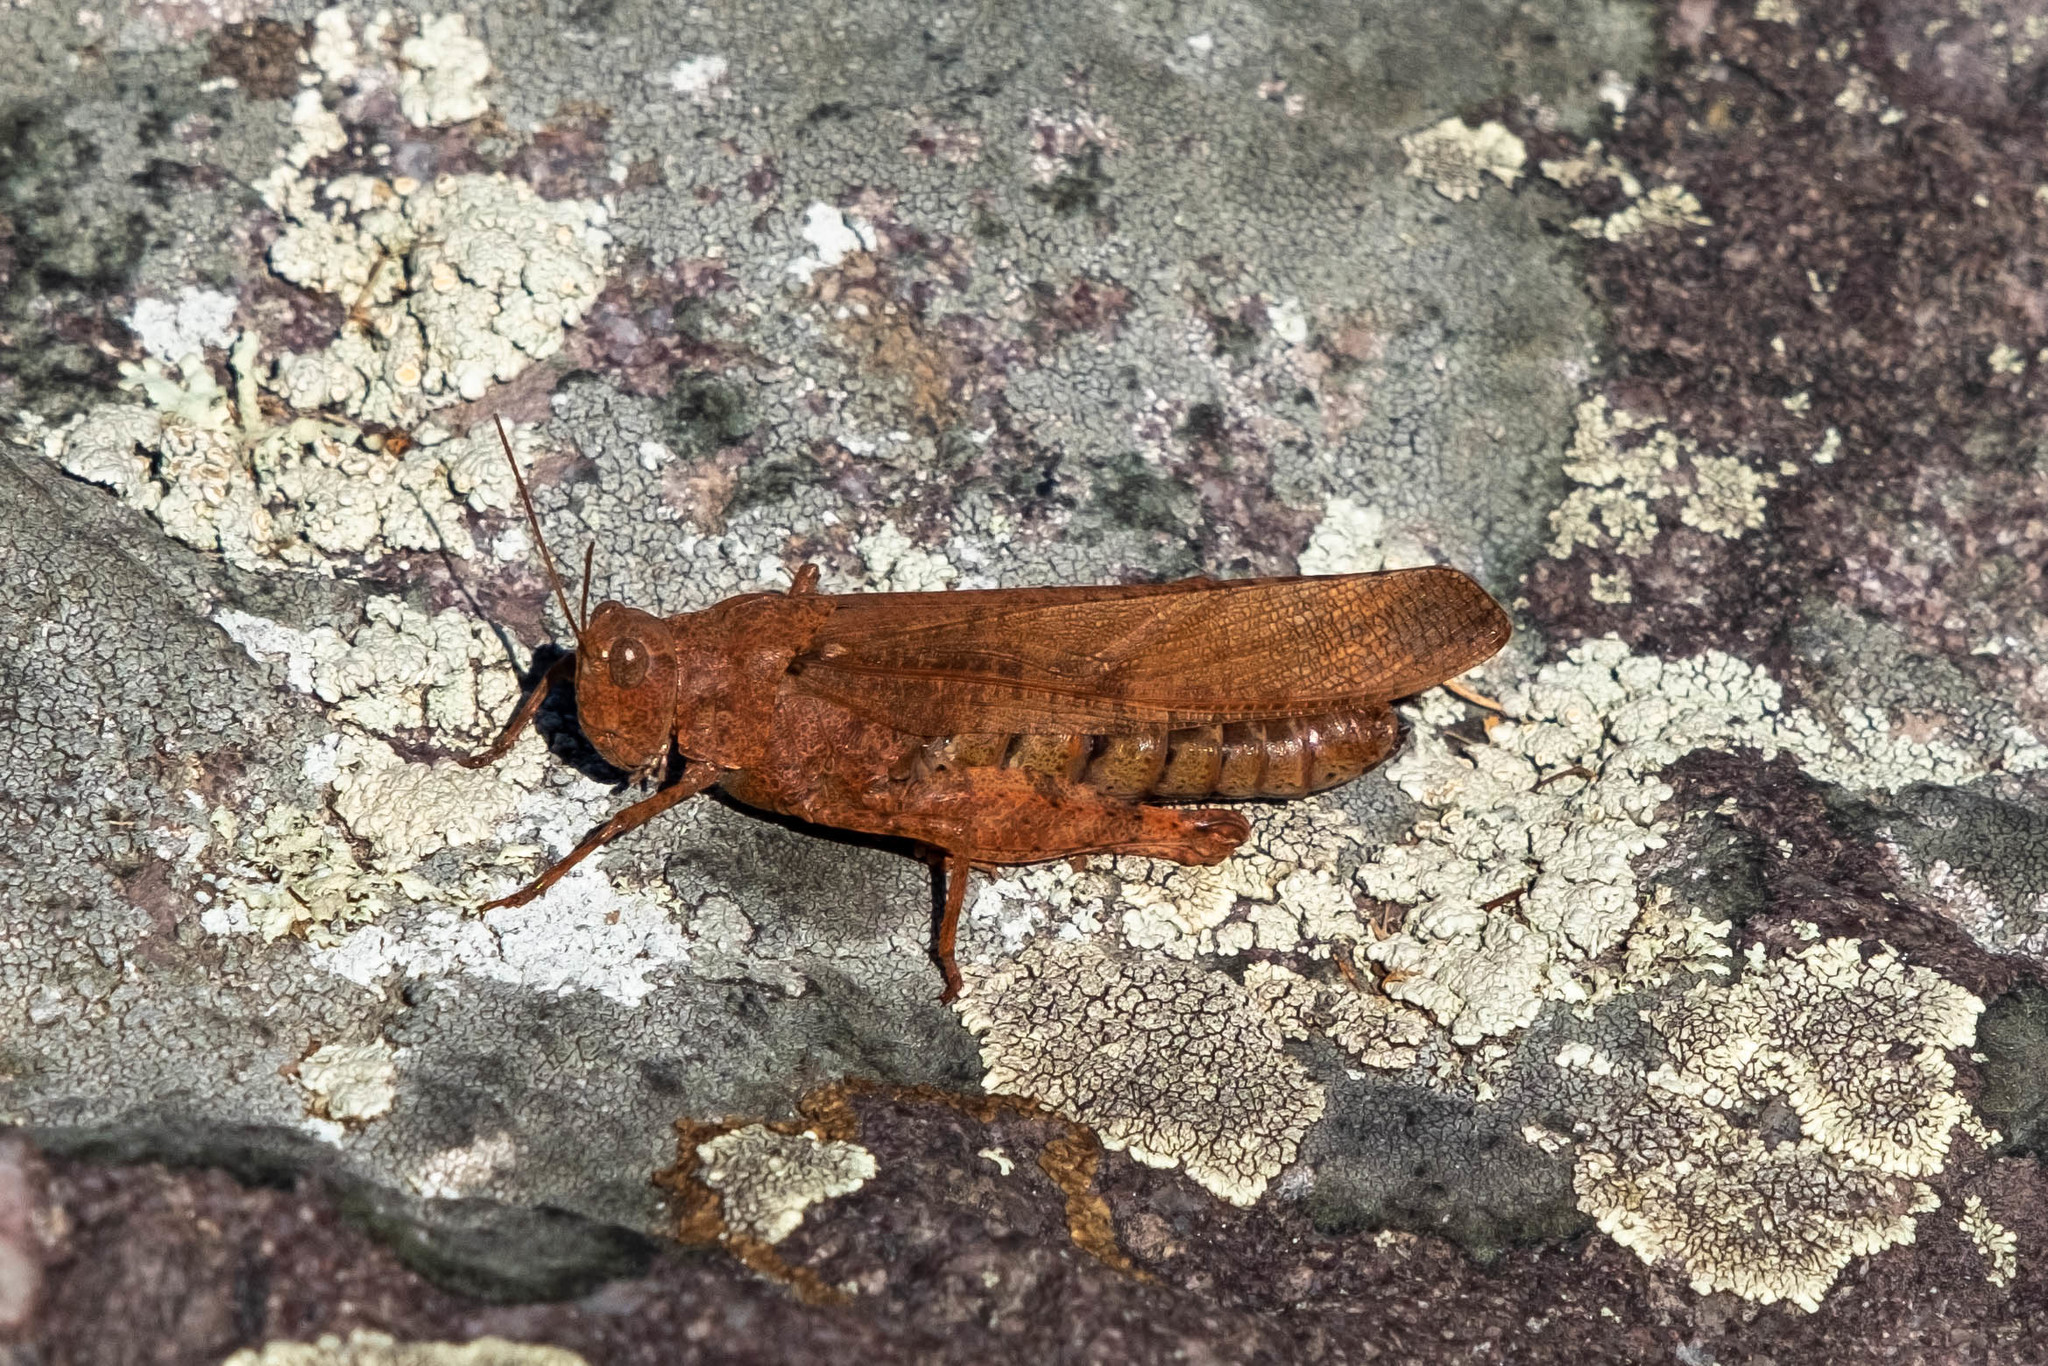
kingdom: Animalia
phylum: Arthropoda
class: Insecta
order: Orthoptera
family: Acrididae
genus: Dissosteira
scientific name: Dissosteira carolina
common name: Carolina grasshopper
